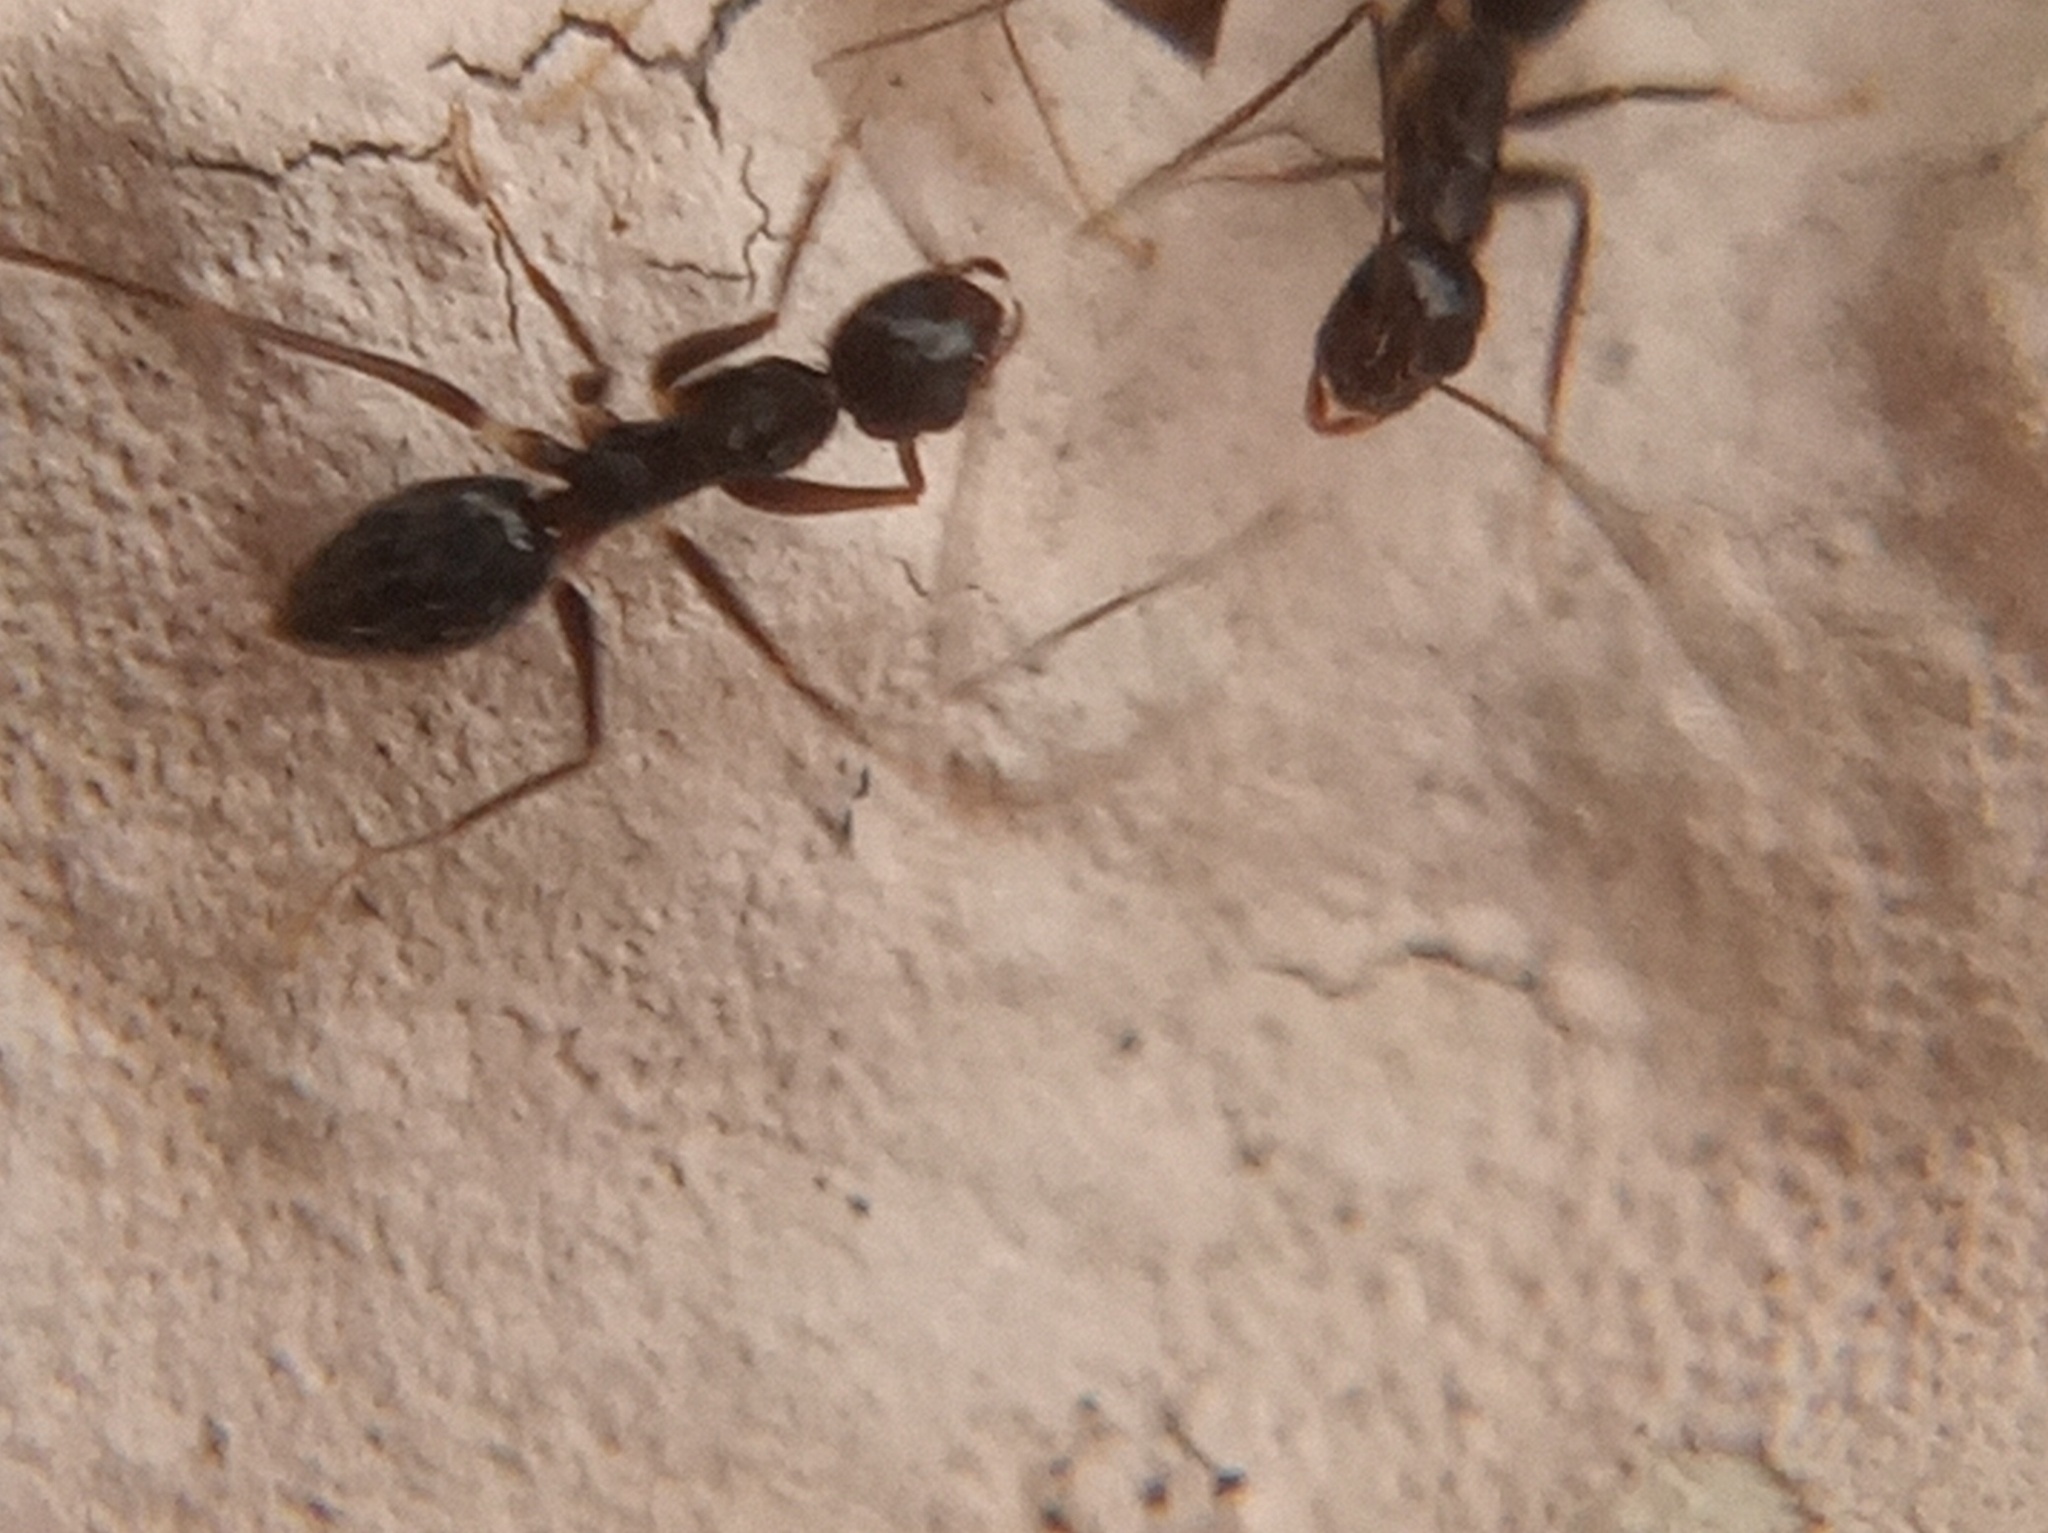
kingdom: Animalia
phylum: Arthropoda
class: Insecta
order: Hymenoptera
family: Formicidae
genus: Paratrechina
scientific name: Paratrechina longicornis
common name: Longhorned crazy ant
